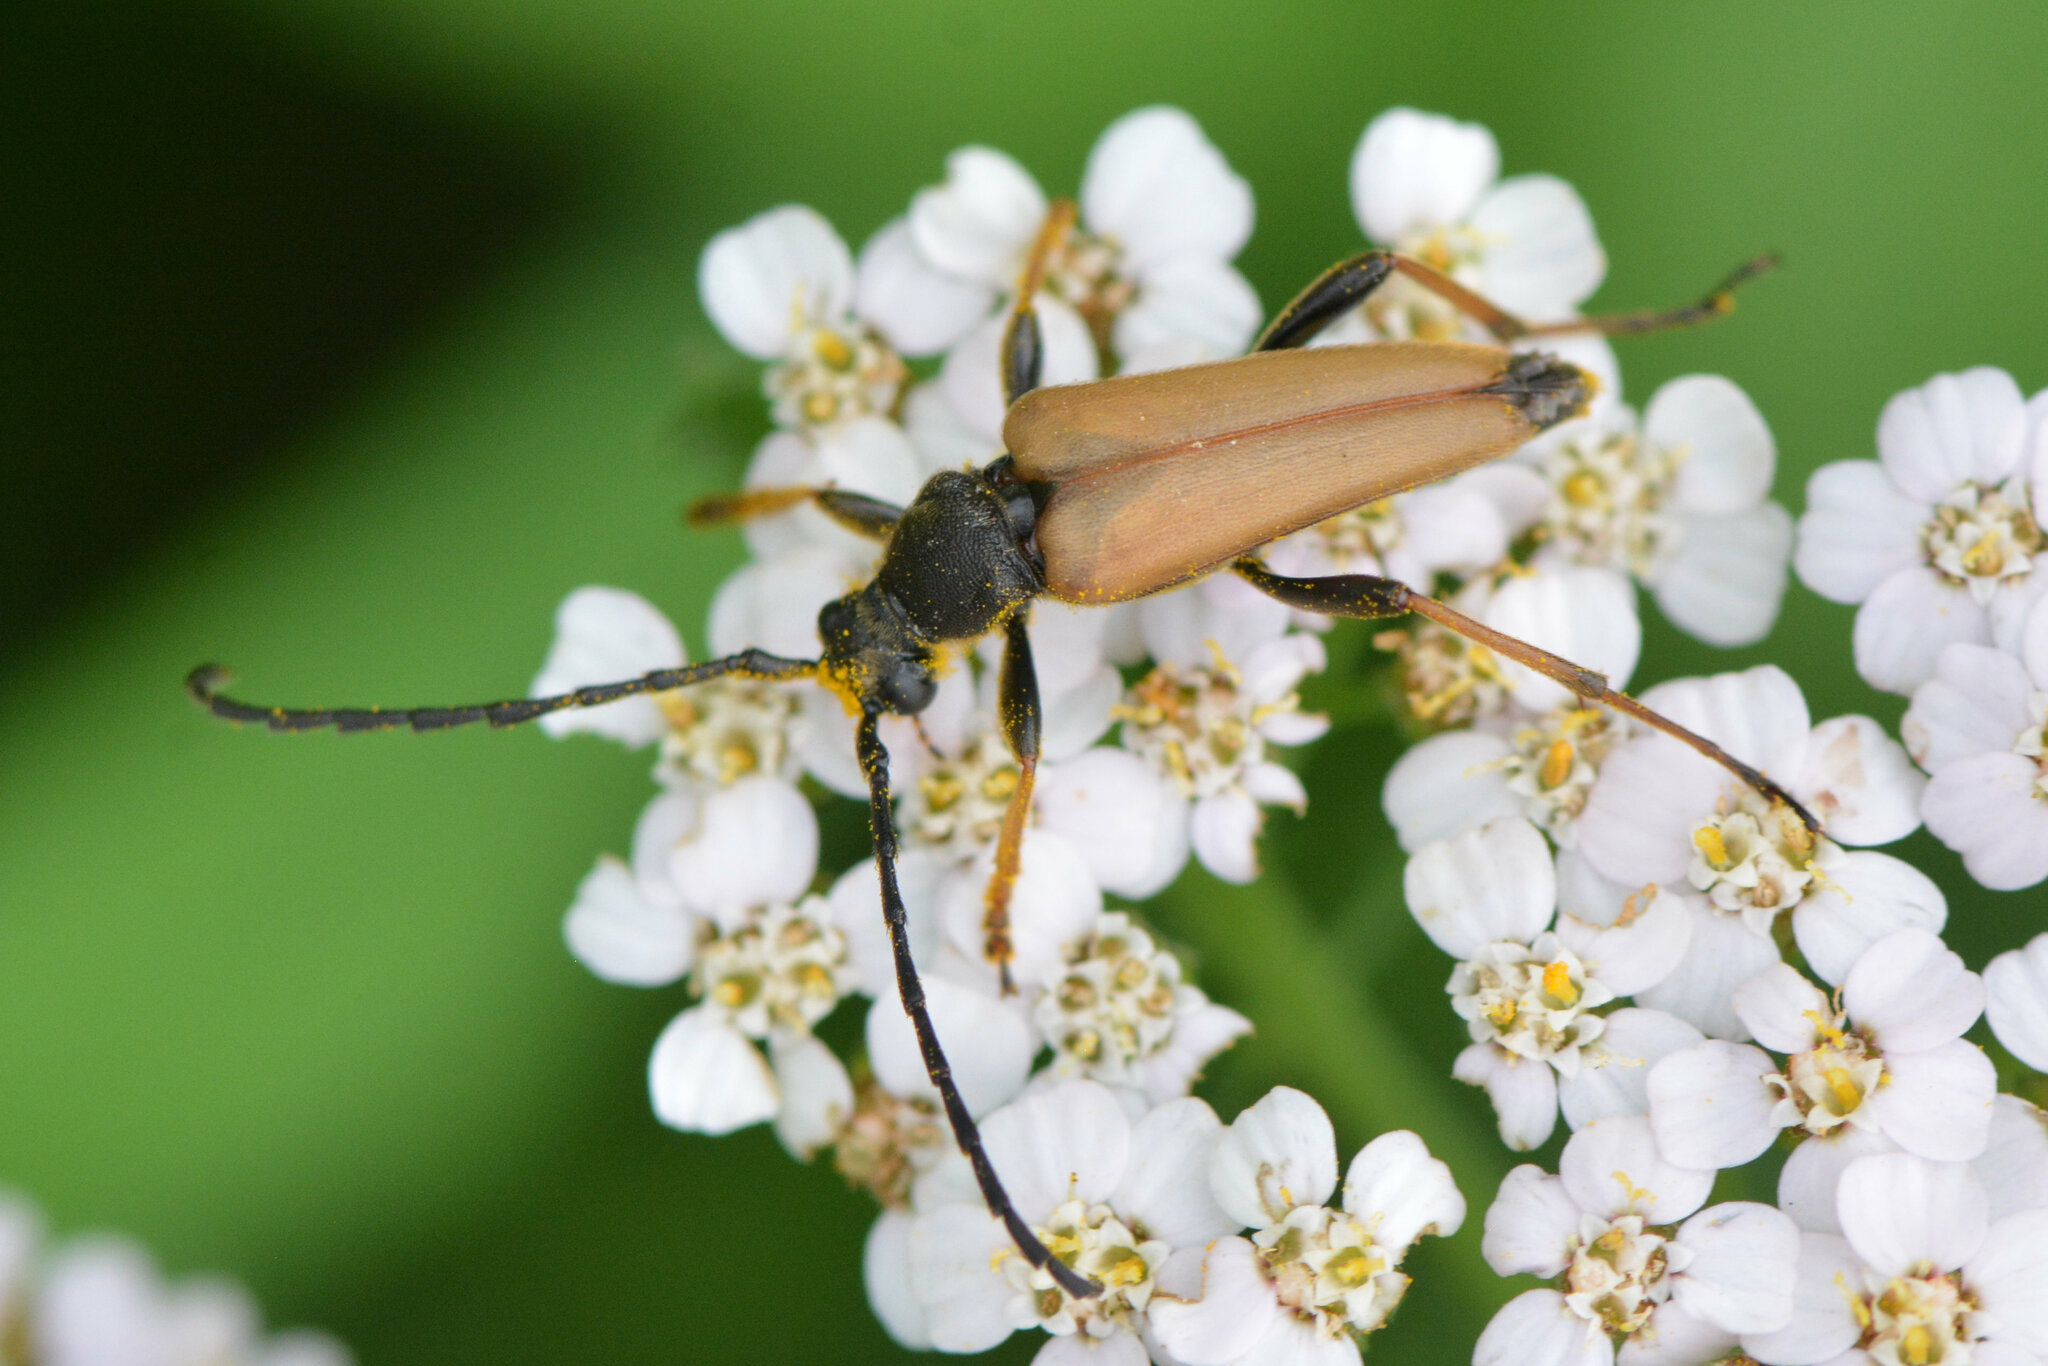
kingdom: Animalia
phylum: Arthropoda
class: Insecta
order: Coleoptera
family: Cerambycidae
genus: Stictoleptura
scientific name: Stictoleptura rubra
